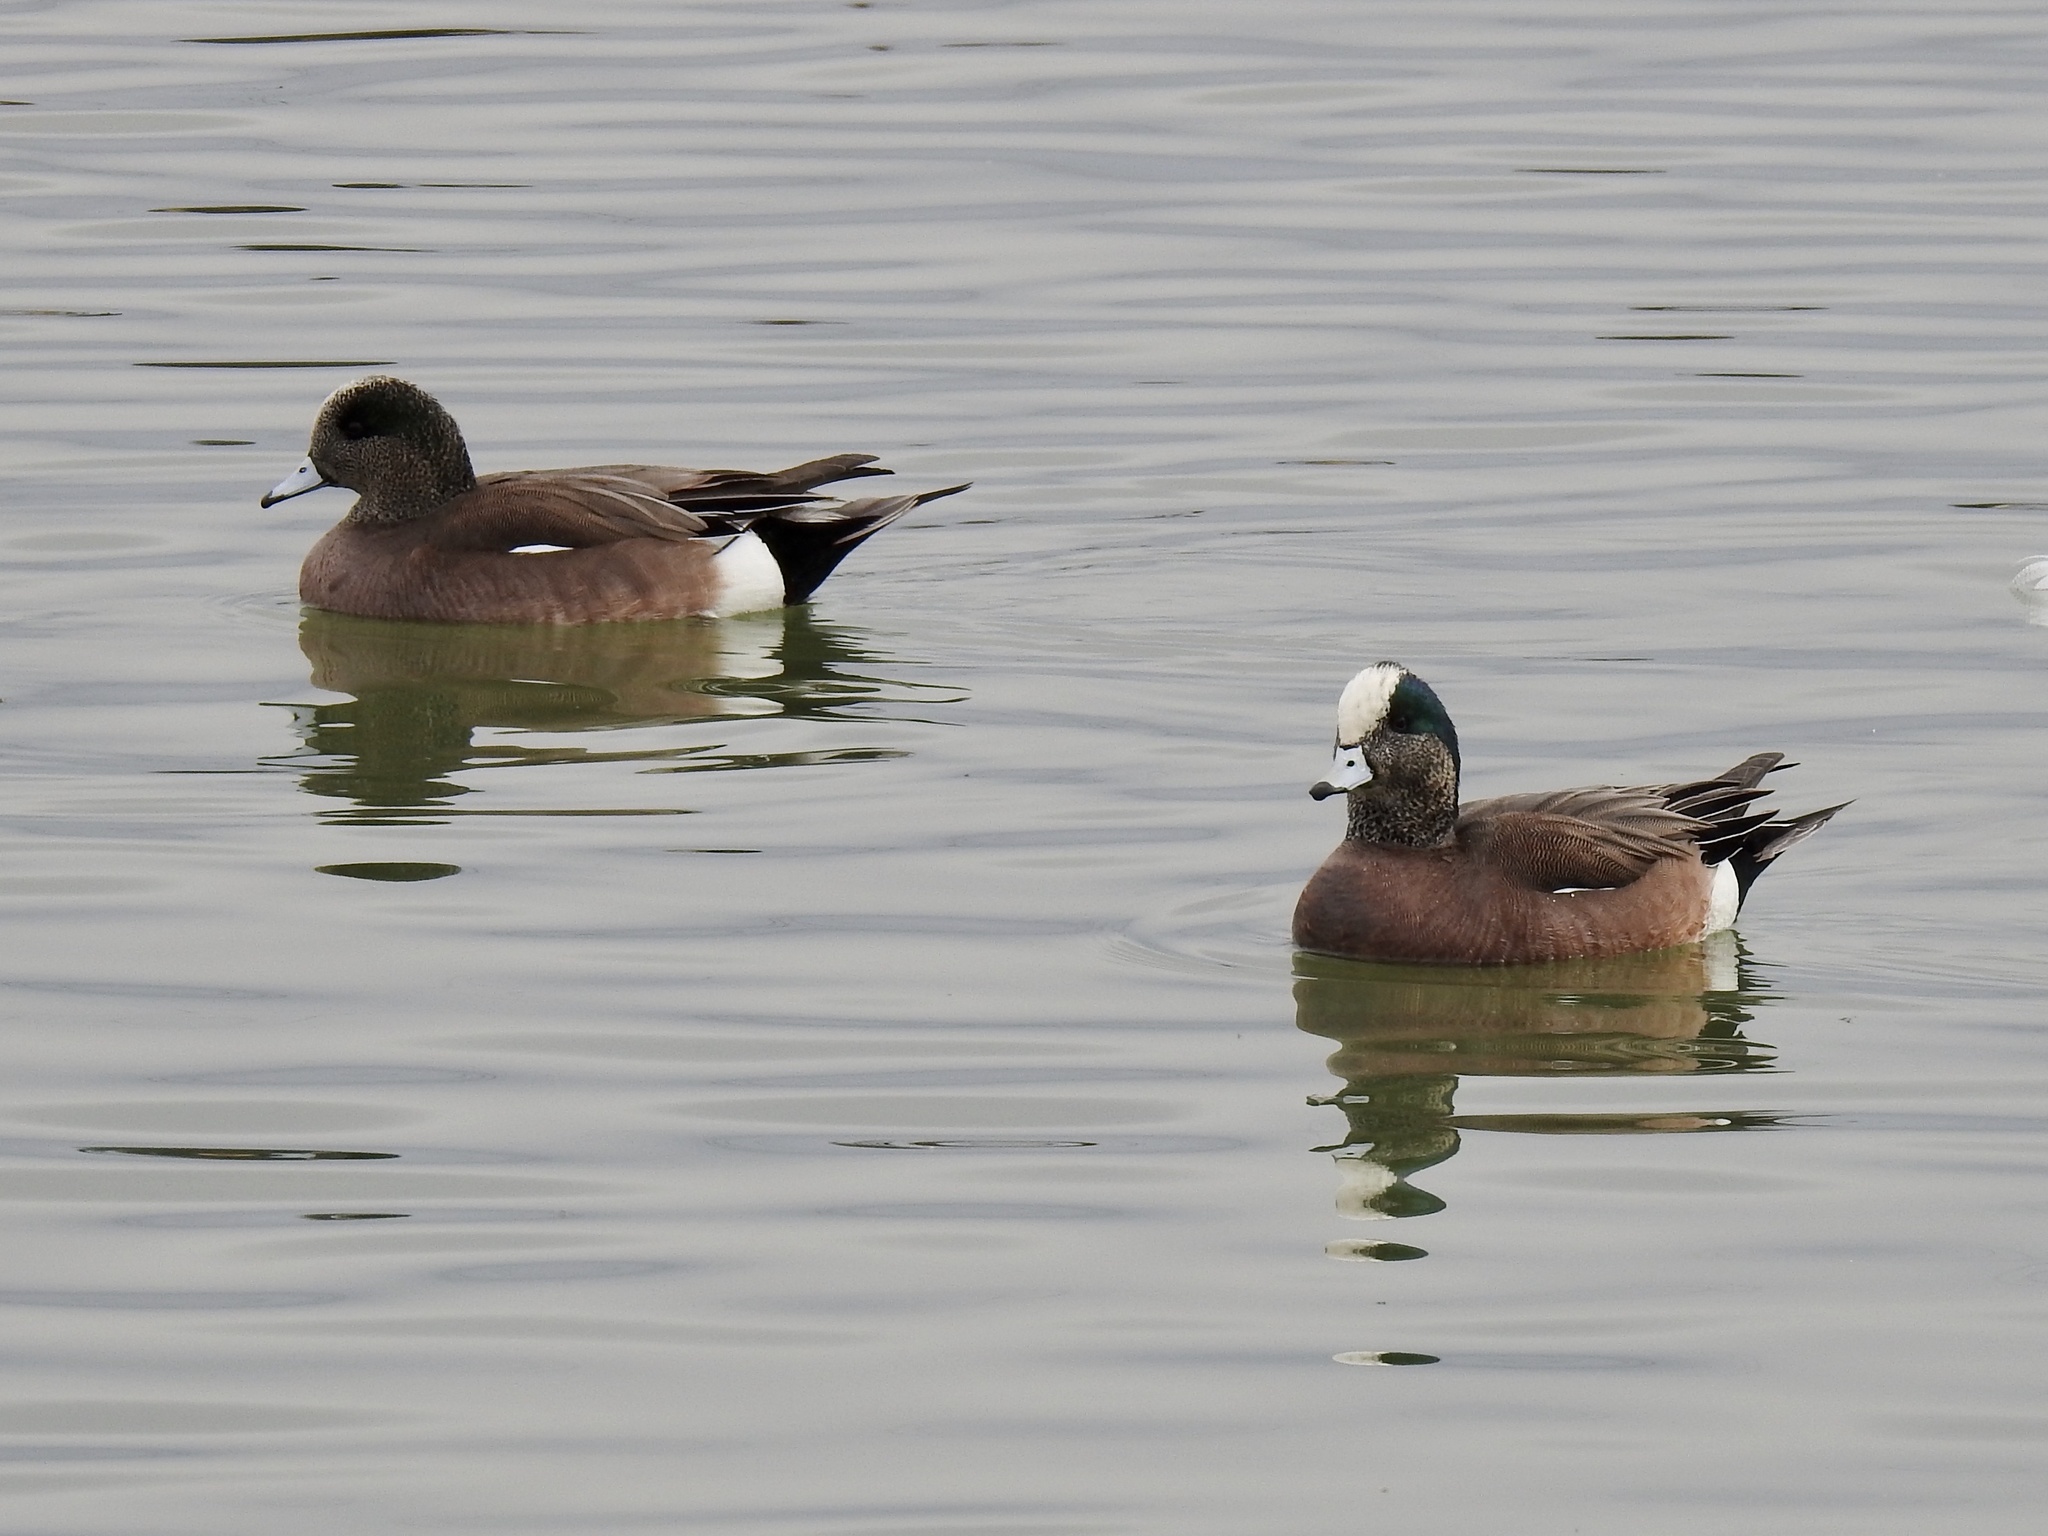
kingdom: Animalia
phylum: Chordata
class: Aves
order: Anseriformes
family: Anatidae
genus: Mareca
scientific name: Mareca americana
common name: American wigeon
